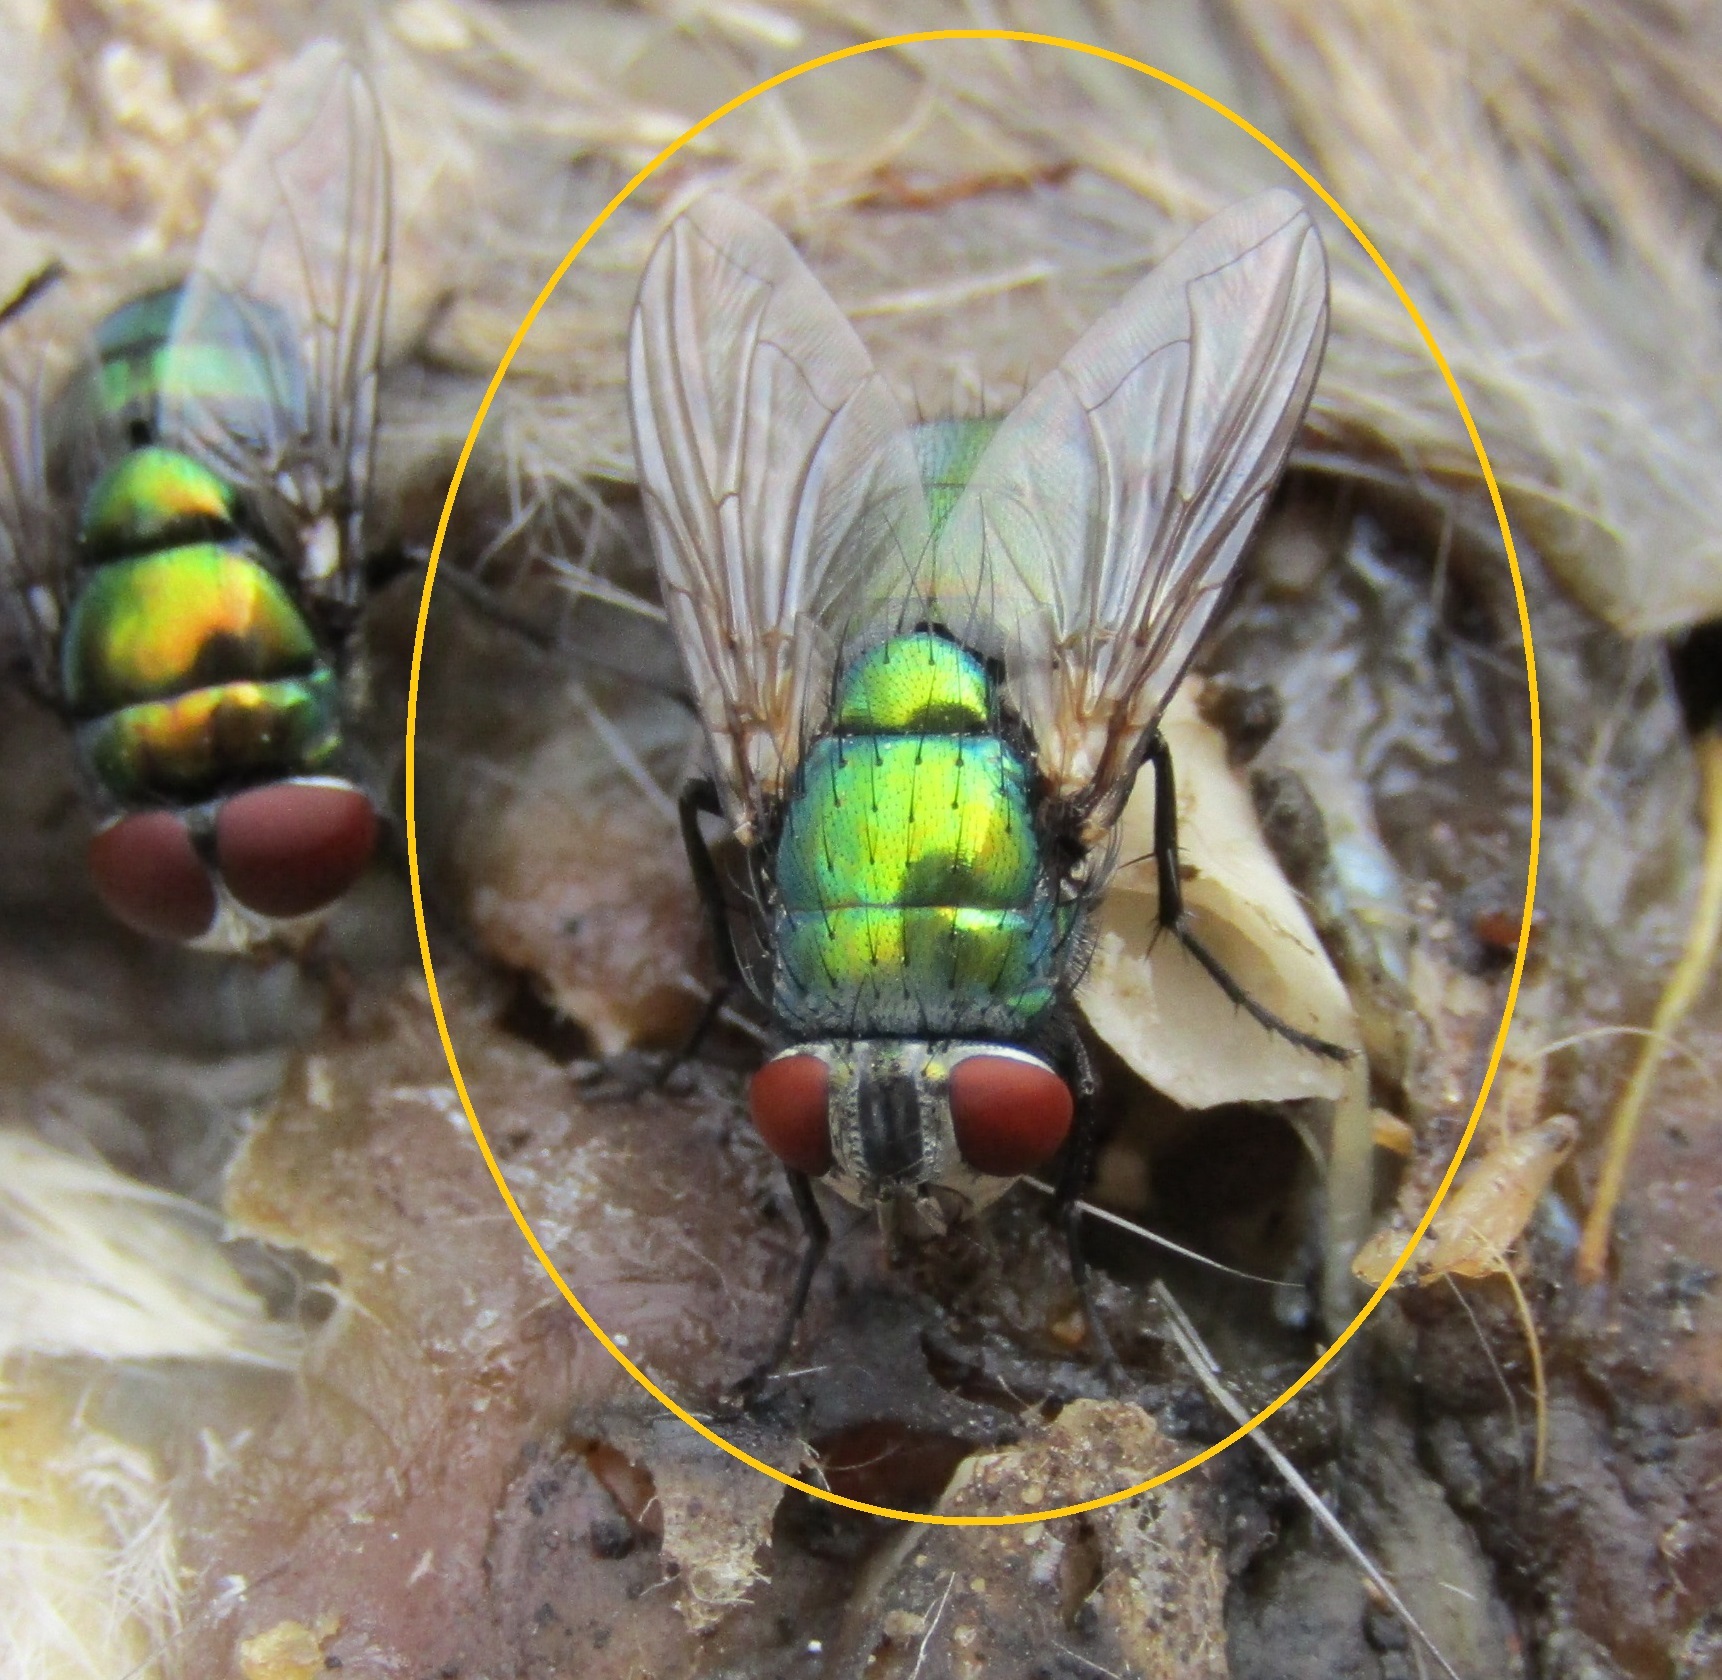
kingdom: Animalia
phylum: Arthropoda
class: Insecta
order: Diptera
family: Calliphoridae
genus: Lucilia
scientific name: Lucilia sericata
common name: Blow fly
